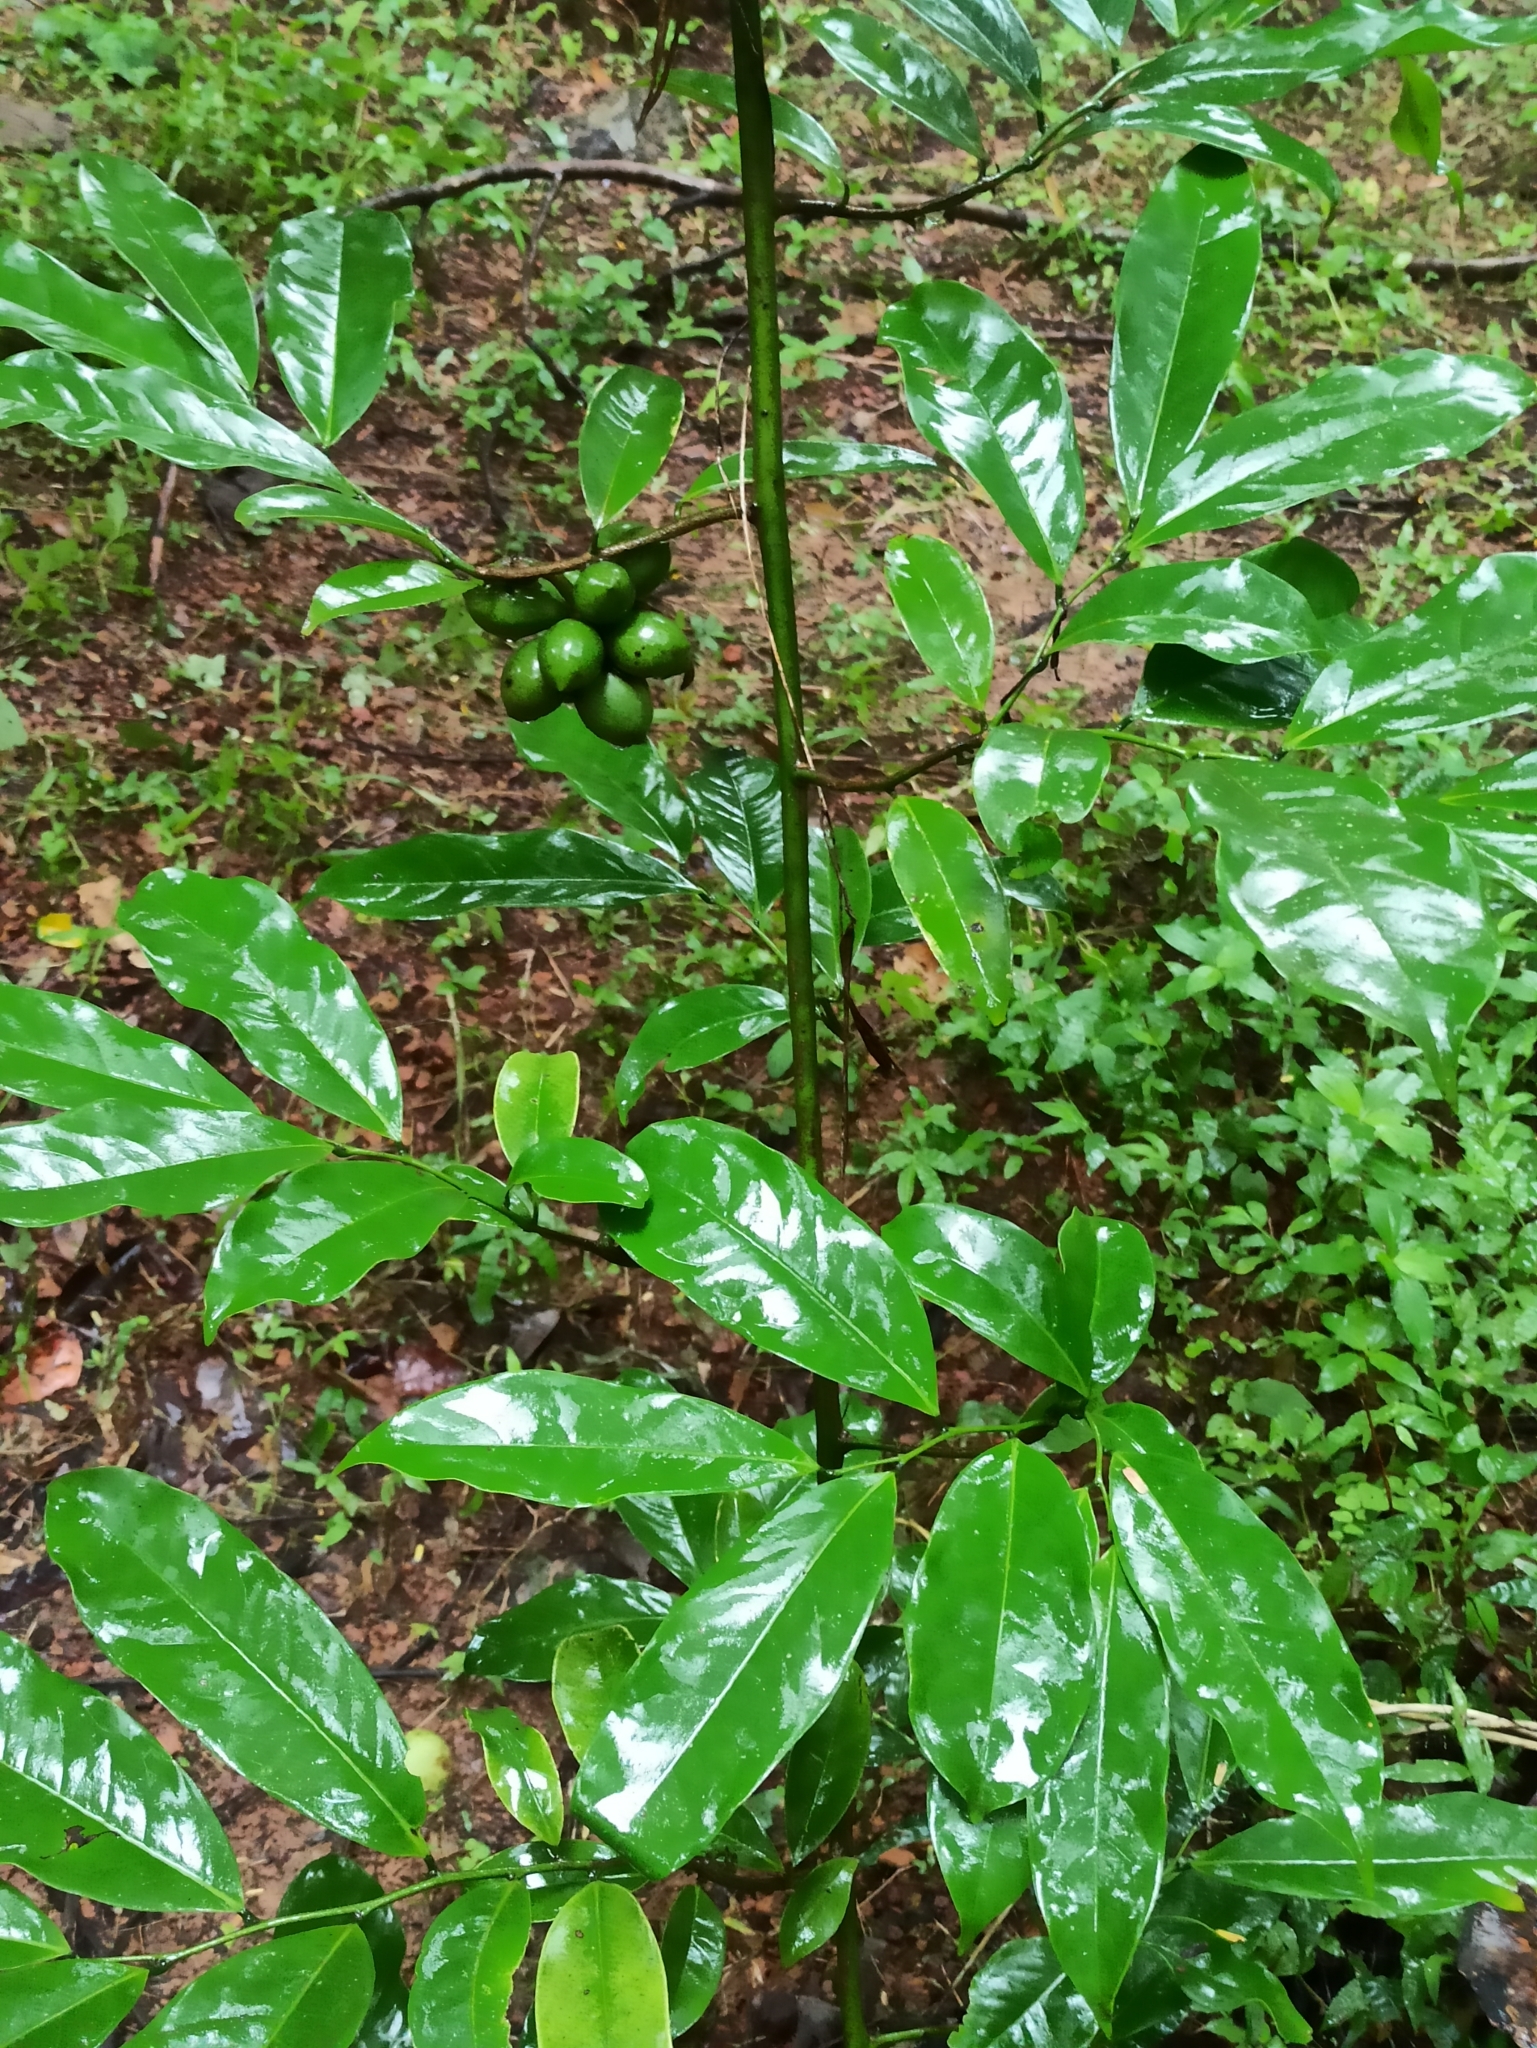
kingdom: Plantae
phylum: Tracheophyta
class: Magnoliopsida
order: Magnoliales
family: Annonaceae
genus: Artabotrys
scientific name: Artabotrys hexapetalus
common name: Climbing ilang-ilang
